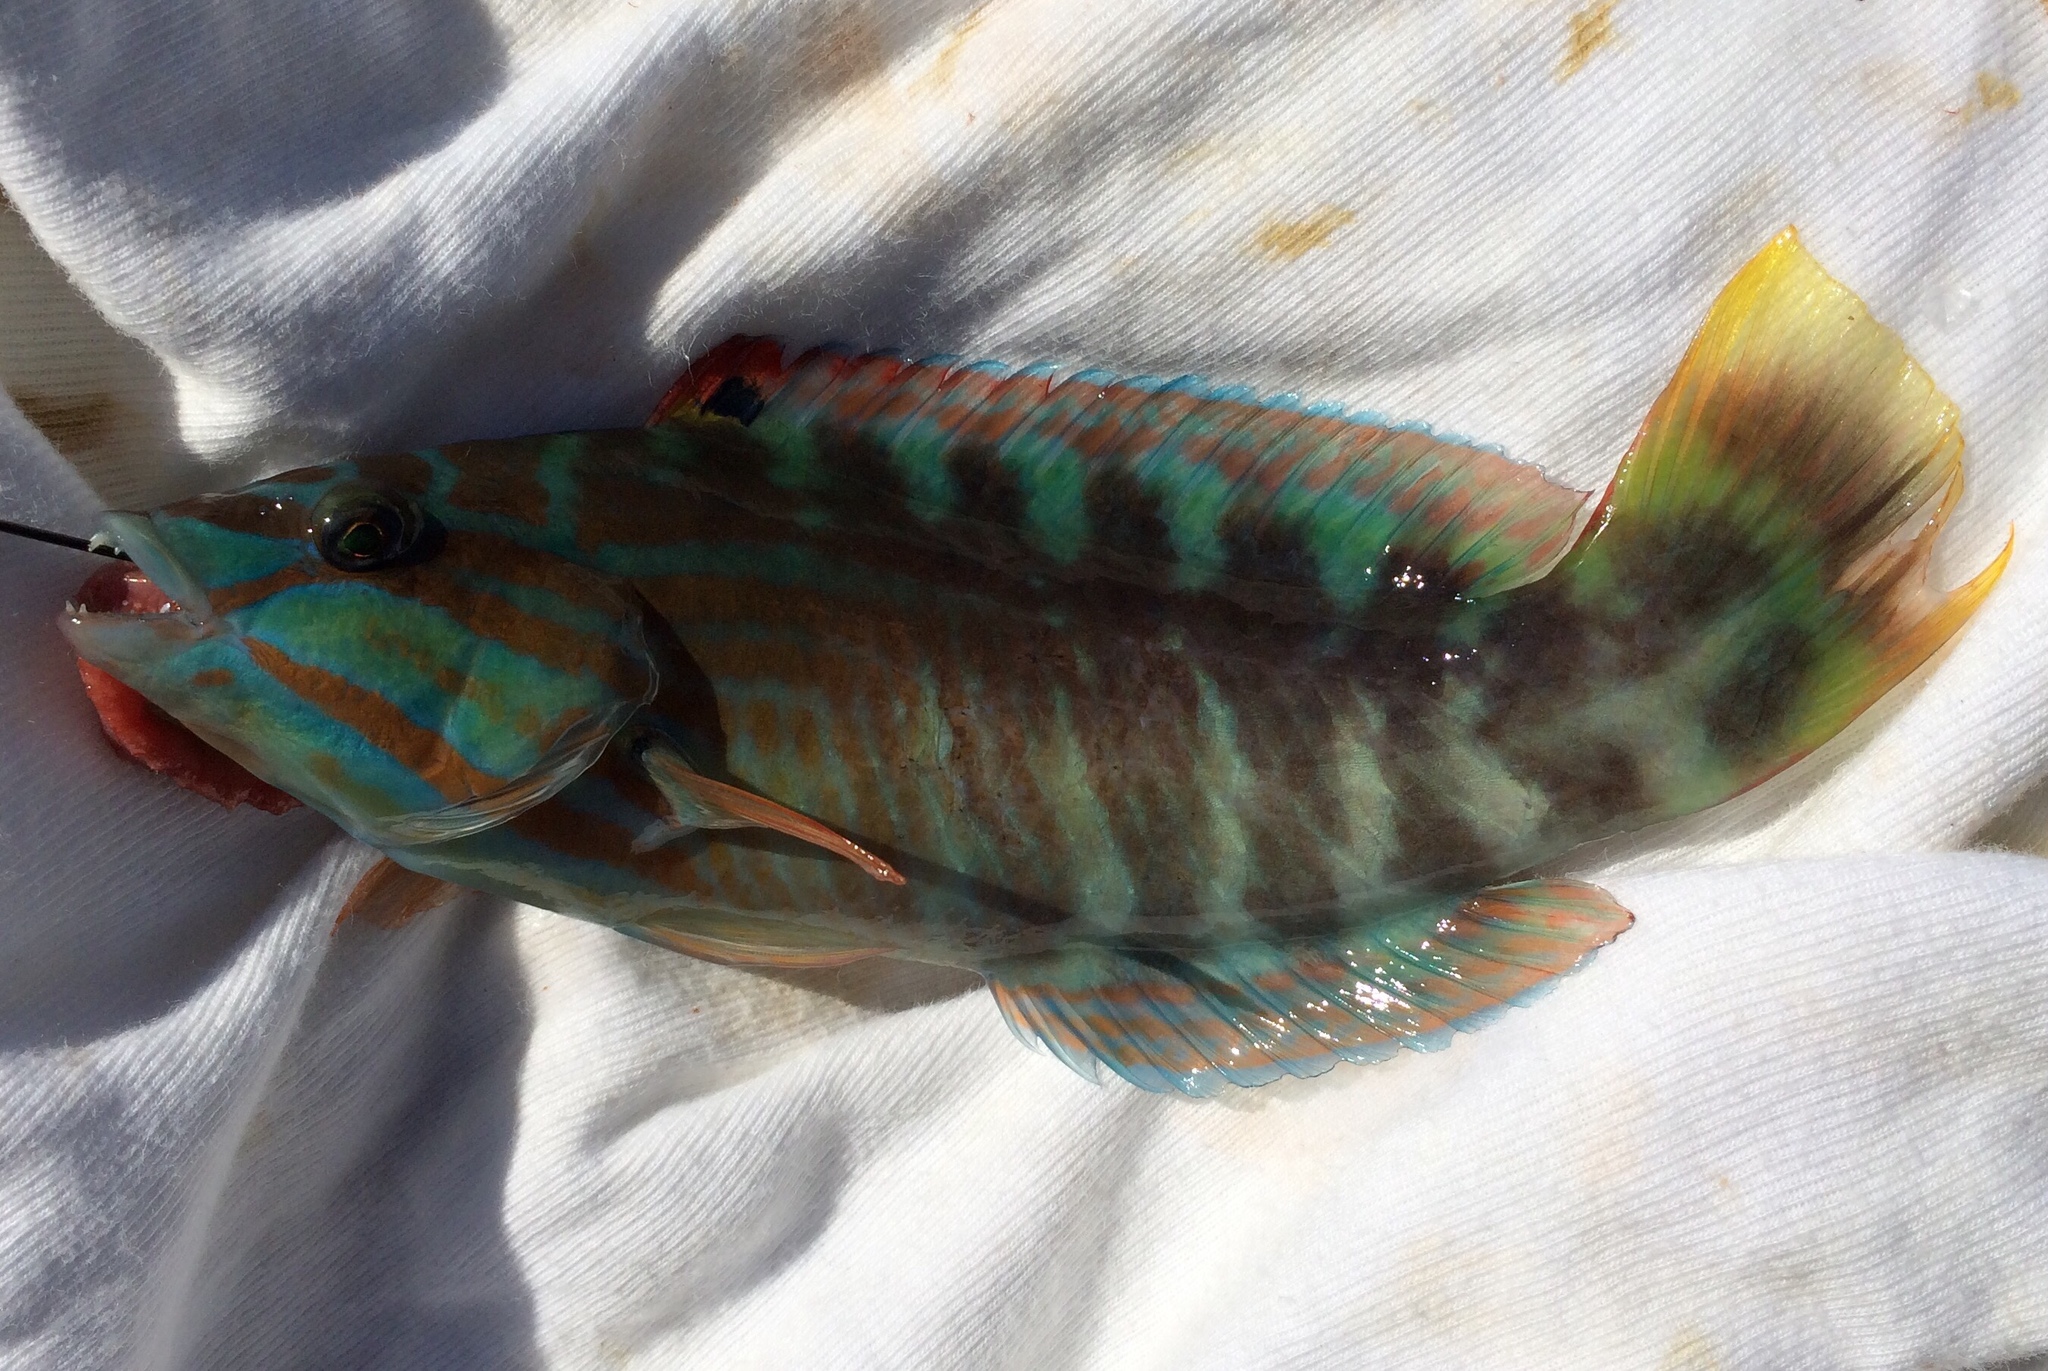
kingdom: Animalia
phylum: Chordata
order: Perciformes
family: Labridae
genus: Pseudolabrus
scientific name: Pseudolabrus guentheri
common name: Günther's wrasse
